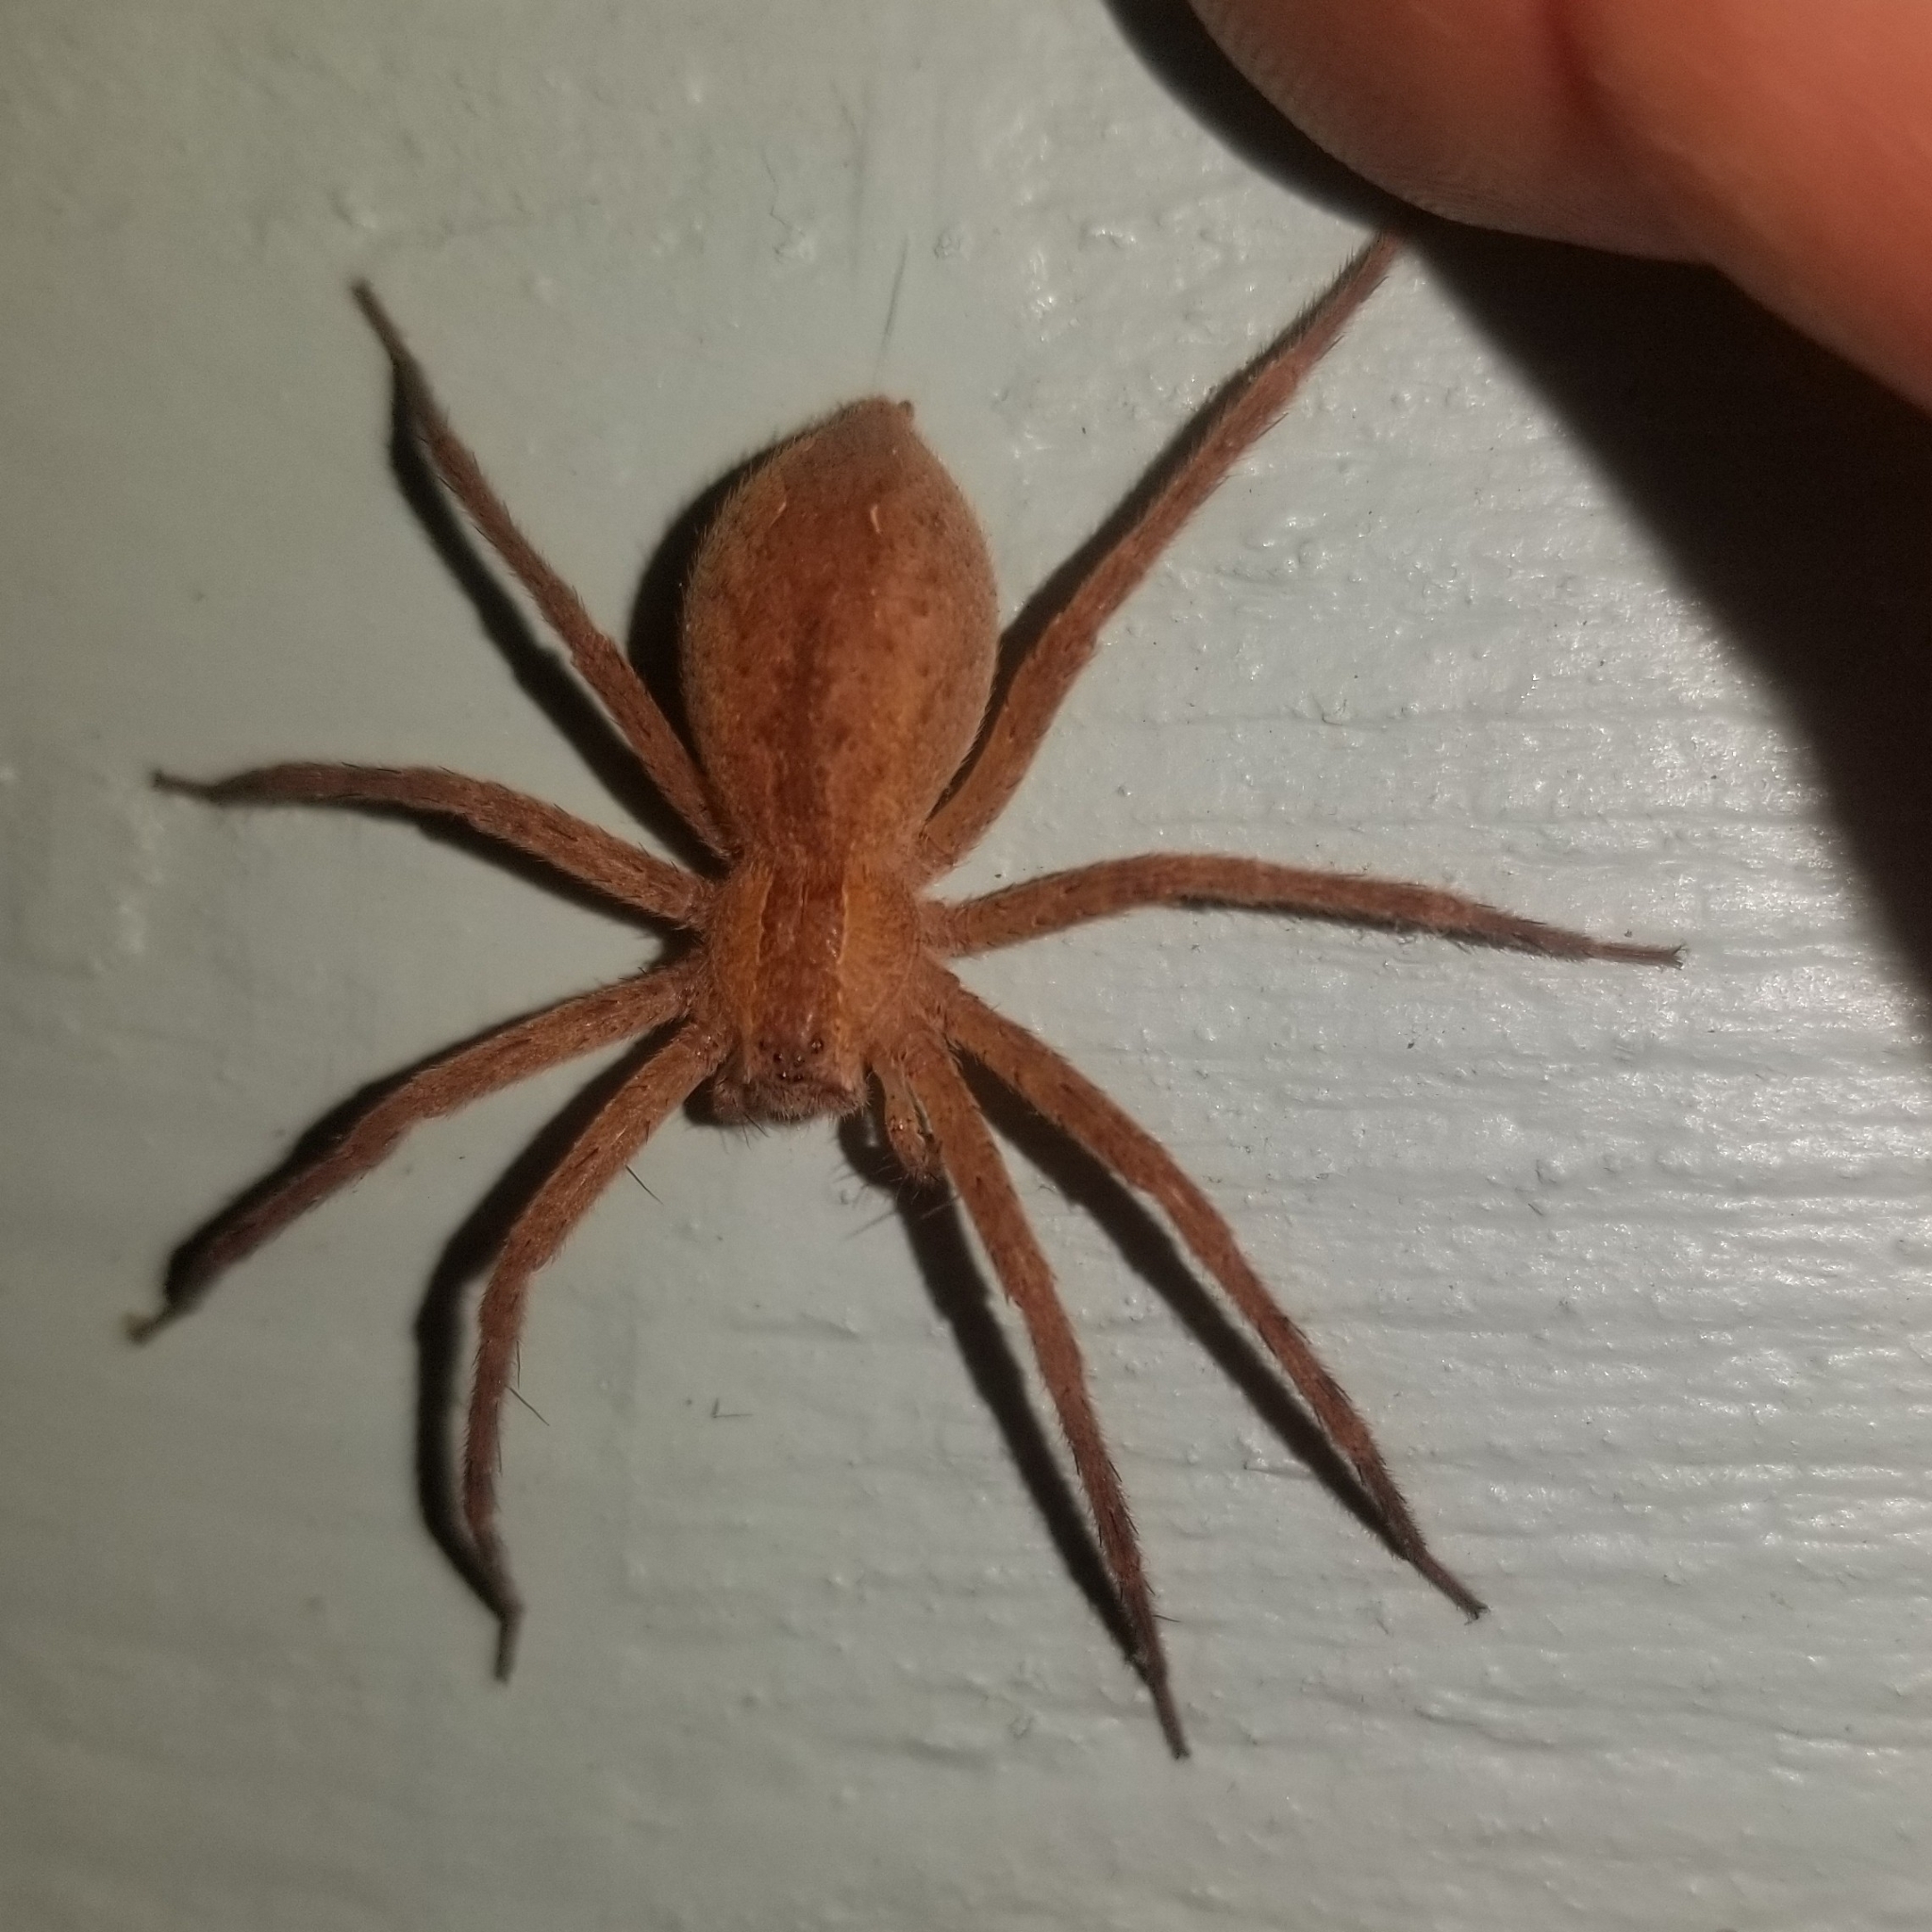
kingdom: Animalia
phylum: Arthropoda
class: Arachnida
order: Araneae
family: Pisauridae
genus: Pisaurina
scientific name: Pisaurina mira
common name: American nursery web spider
